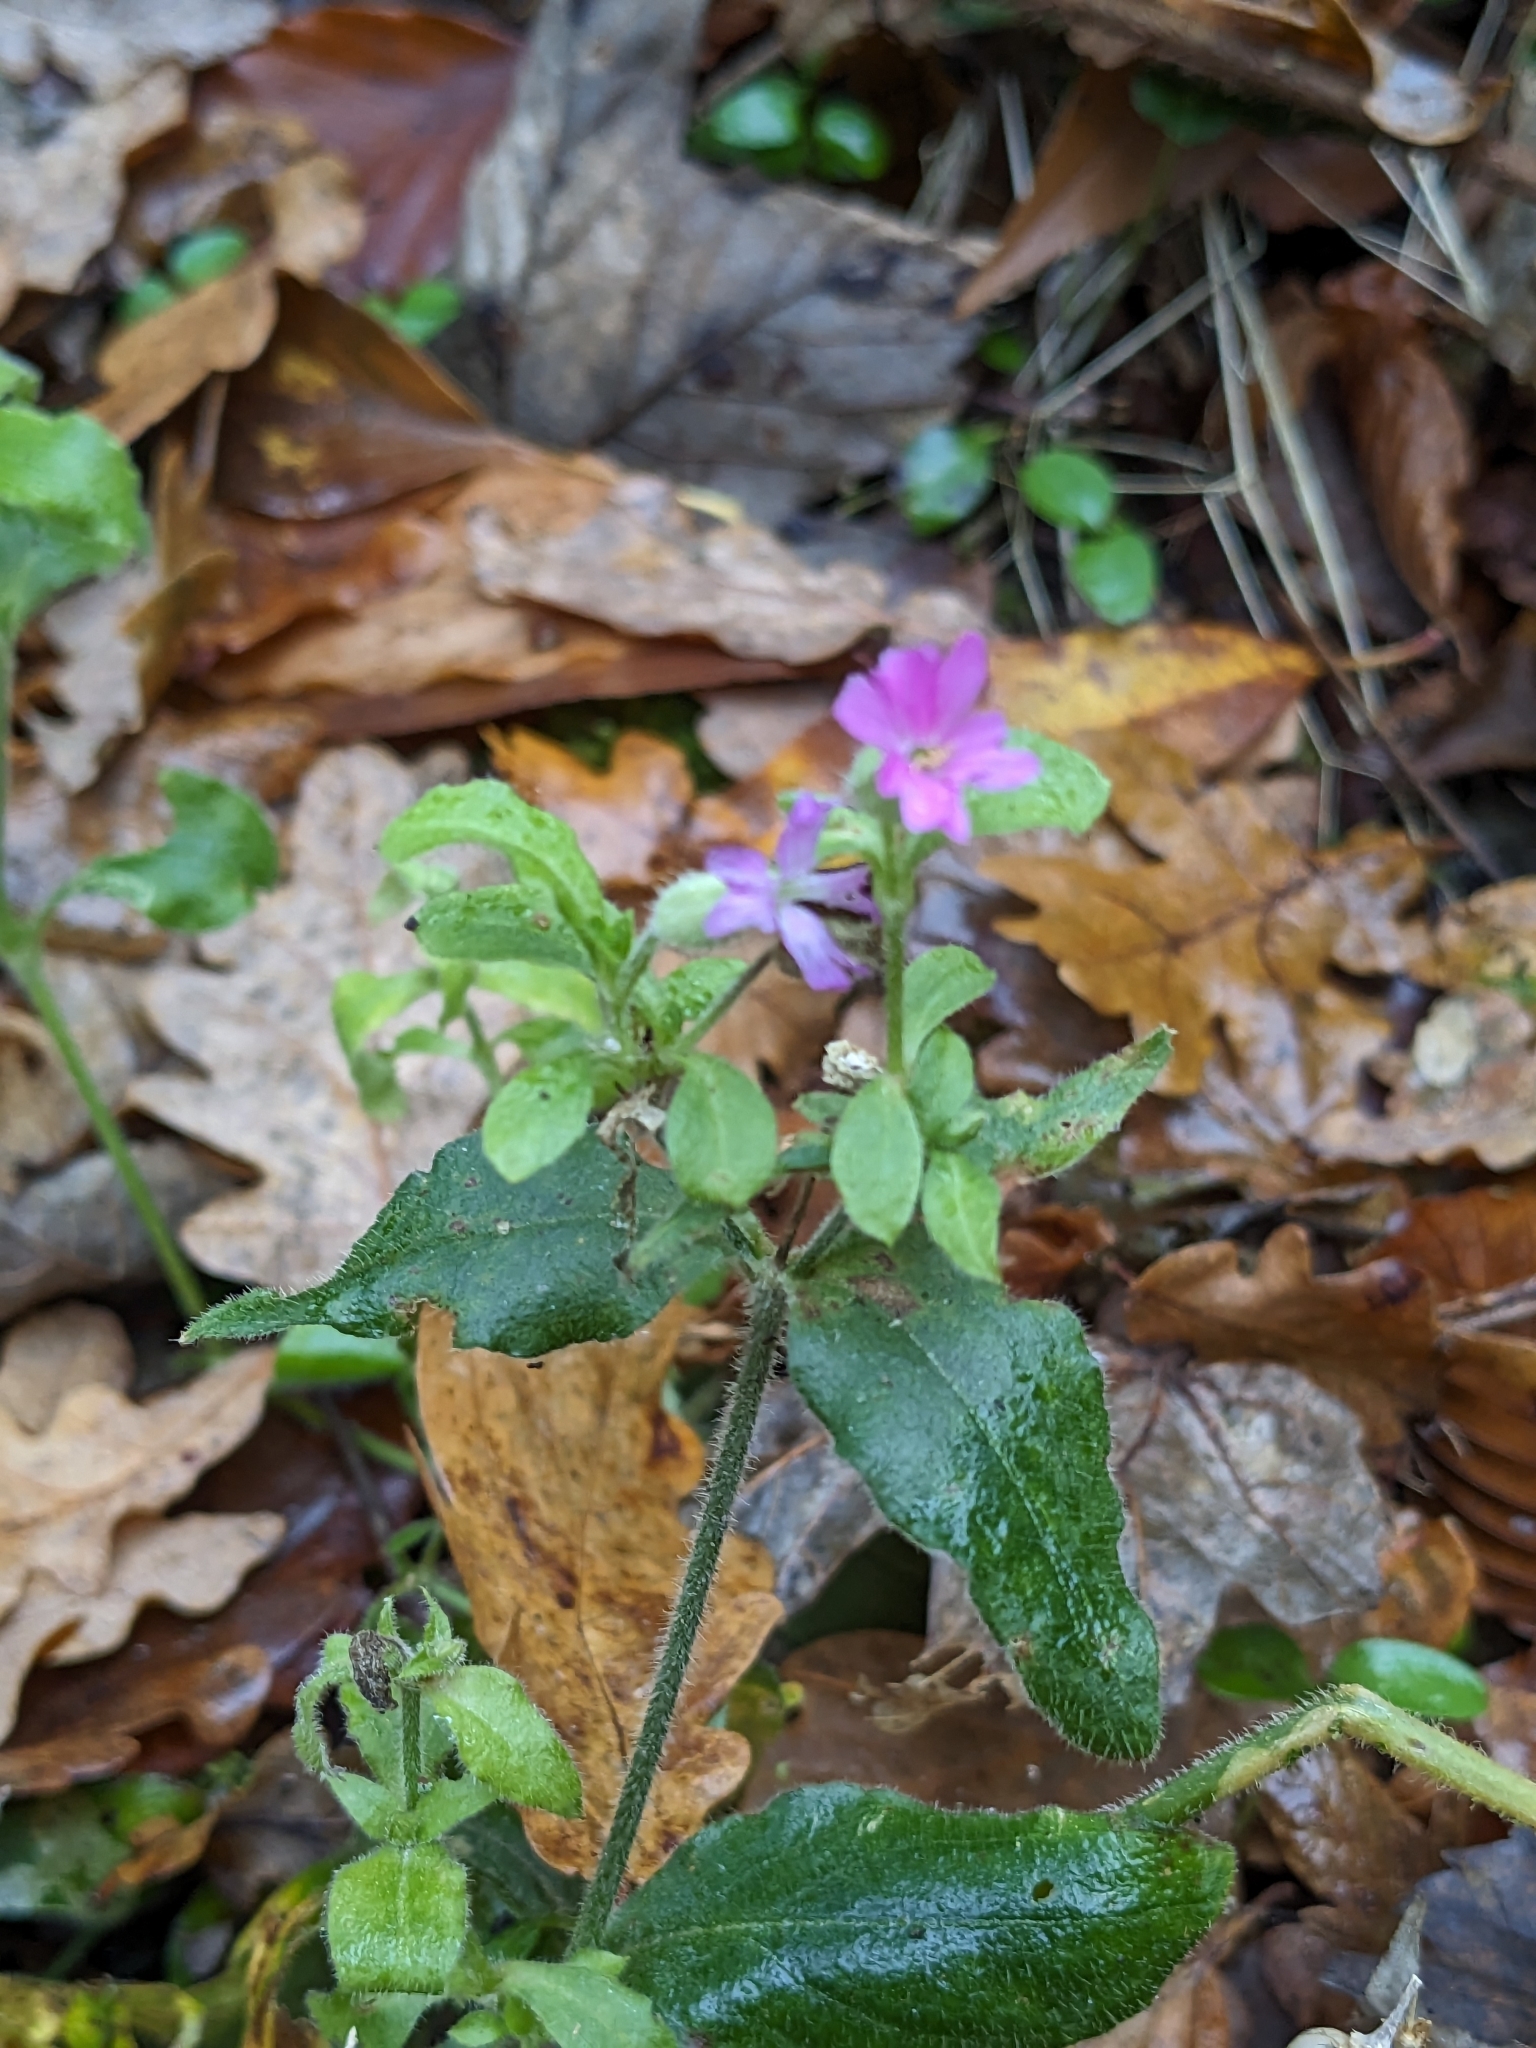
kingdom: Plantae
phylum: Tracheophyta
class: Magnoliopsida
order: Caryophyllales
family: Caryophyllaceae
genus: Silene
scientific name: Silene dioica
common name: Red campion
